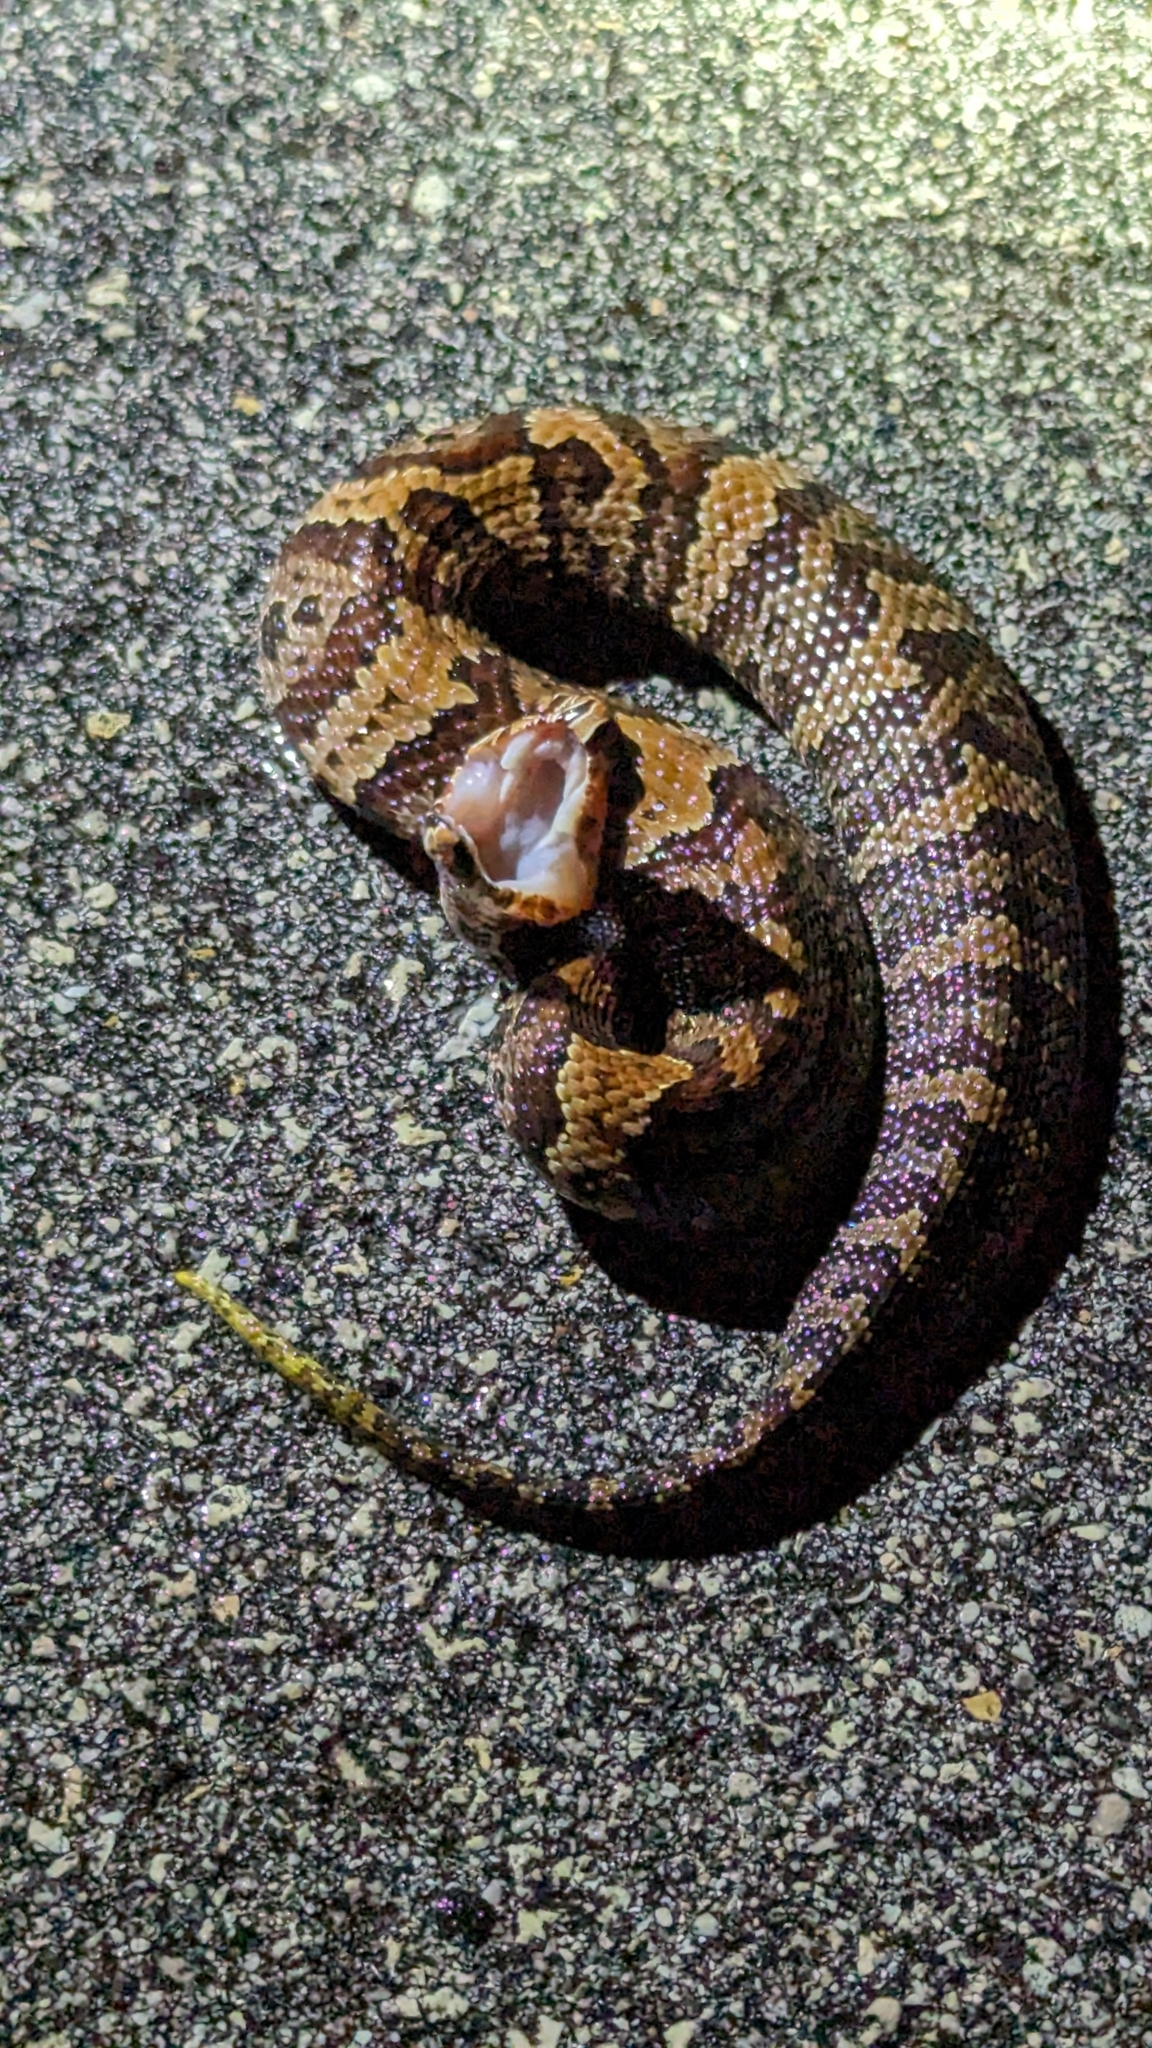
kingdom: Animalia
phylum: Chordata
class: Squamata
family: Viperidae
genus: Agkistrodon
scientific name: Agkistrodon conanti
